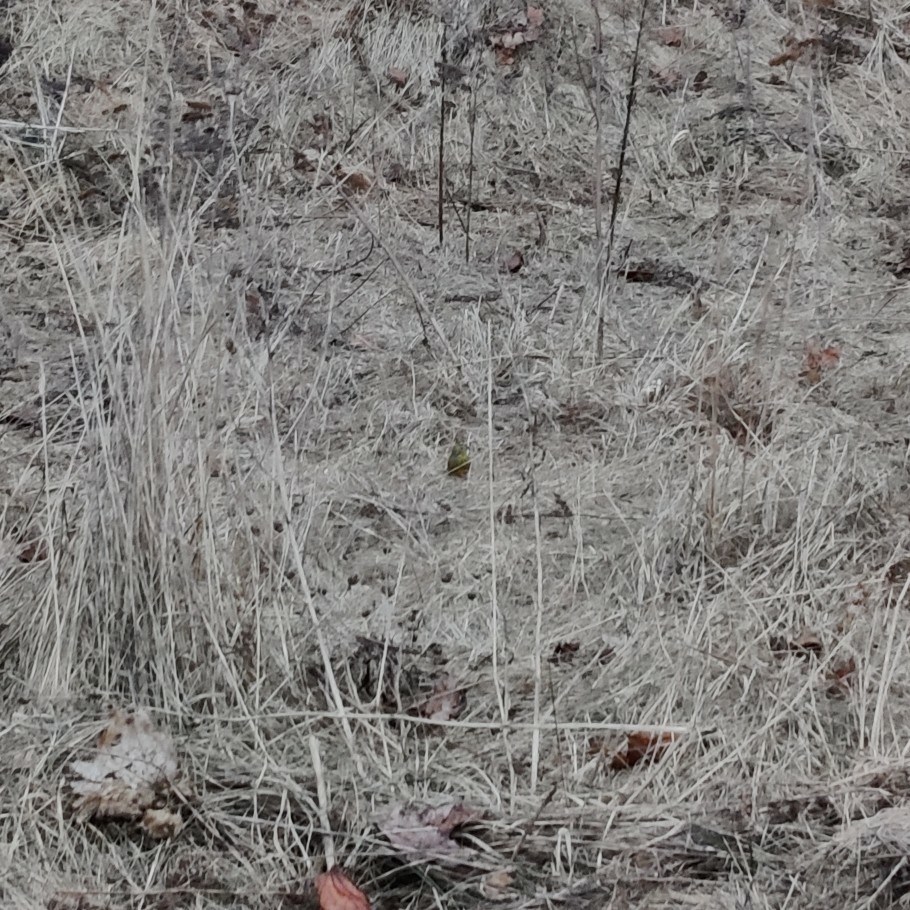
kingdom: Animalia
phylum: Chordata
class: Aves
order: Passeriformes
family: Emberizidae
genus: Emberiza
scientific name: Emberiza citrinella
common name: Yellowhammer
